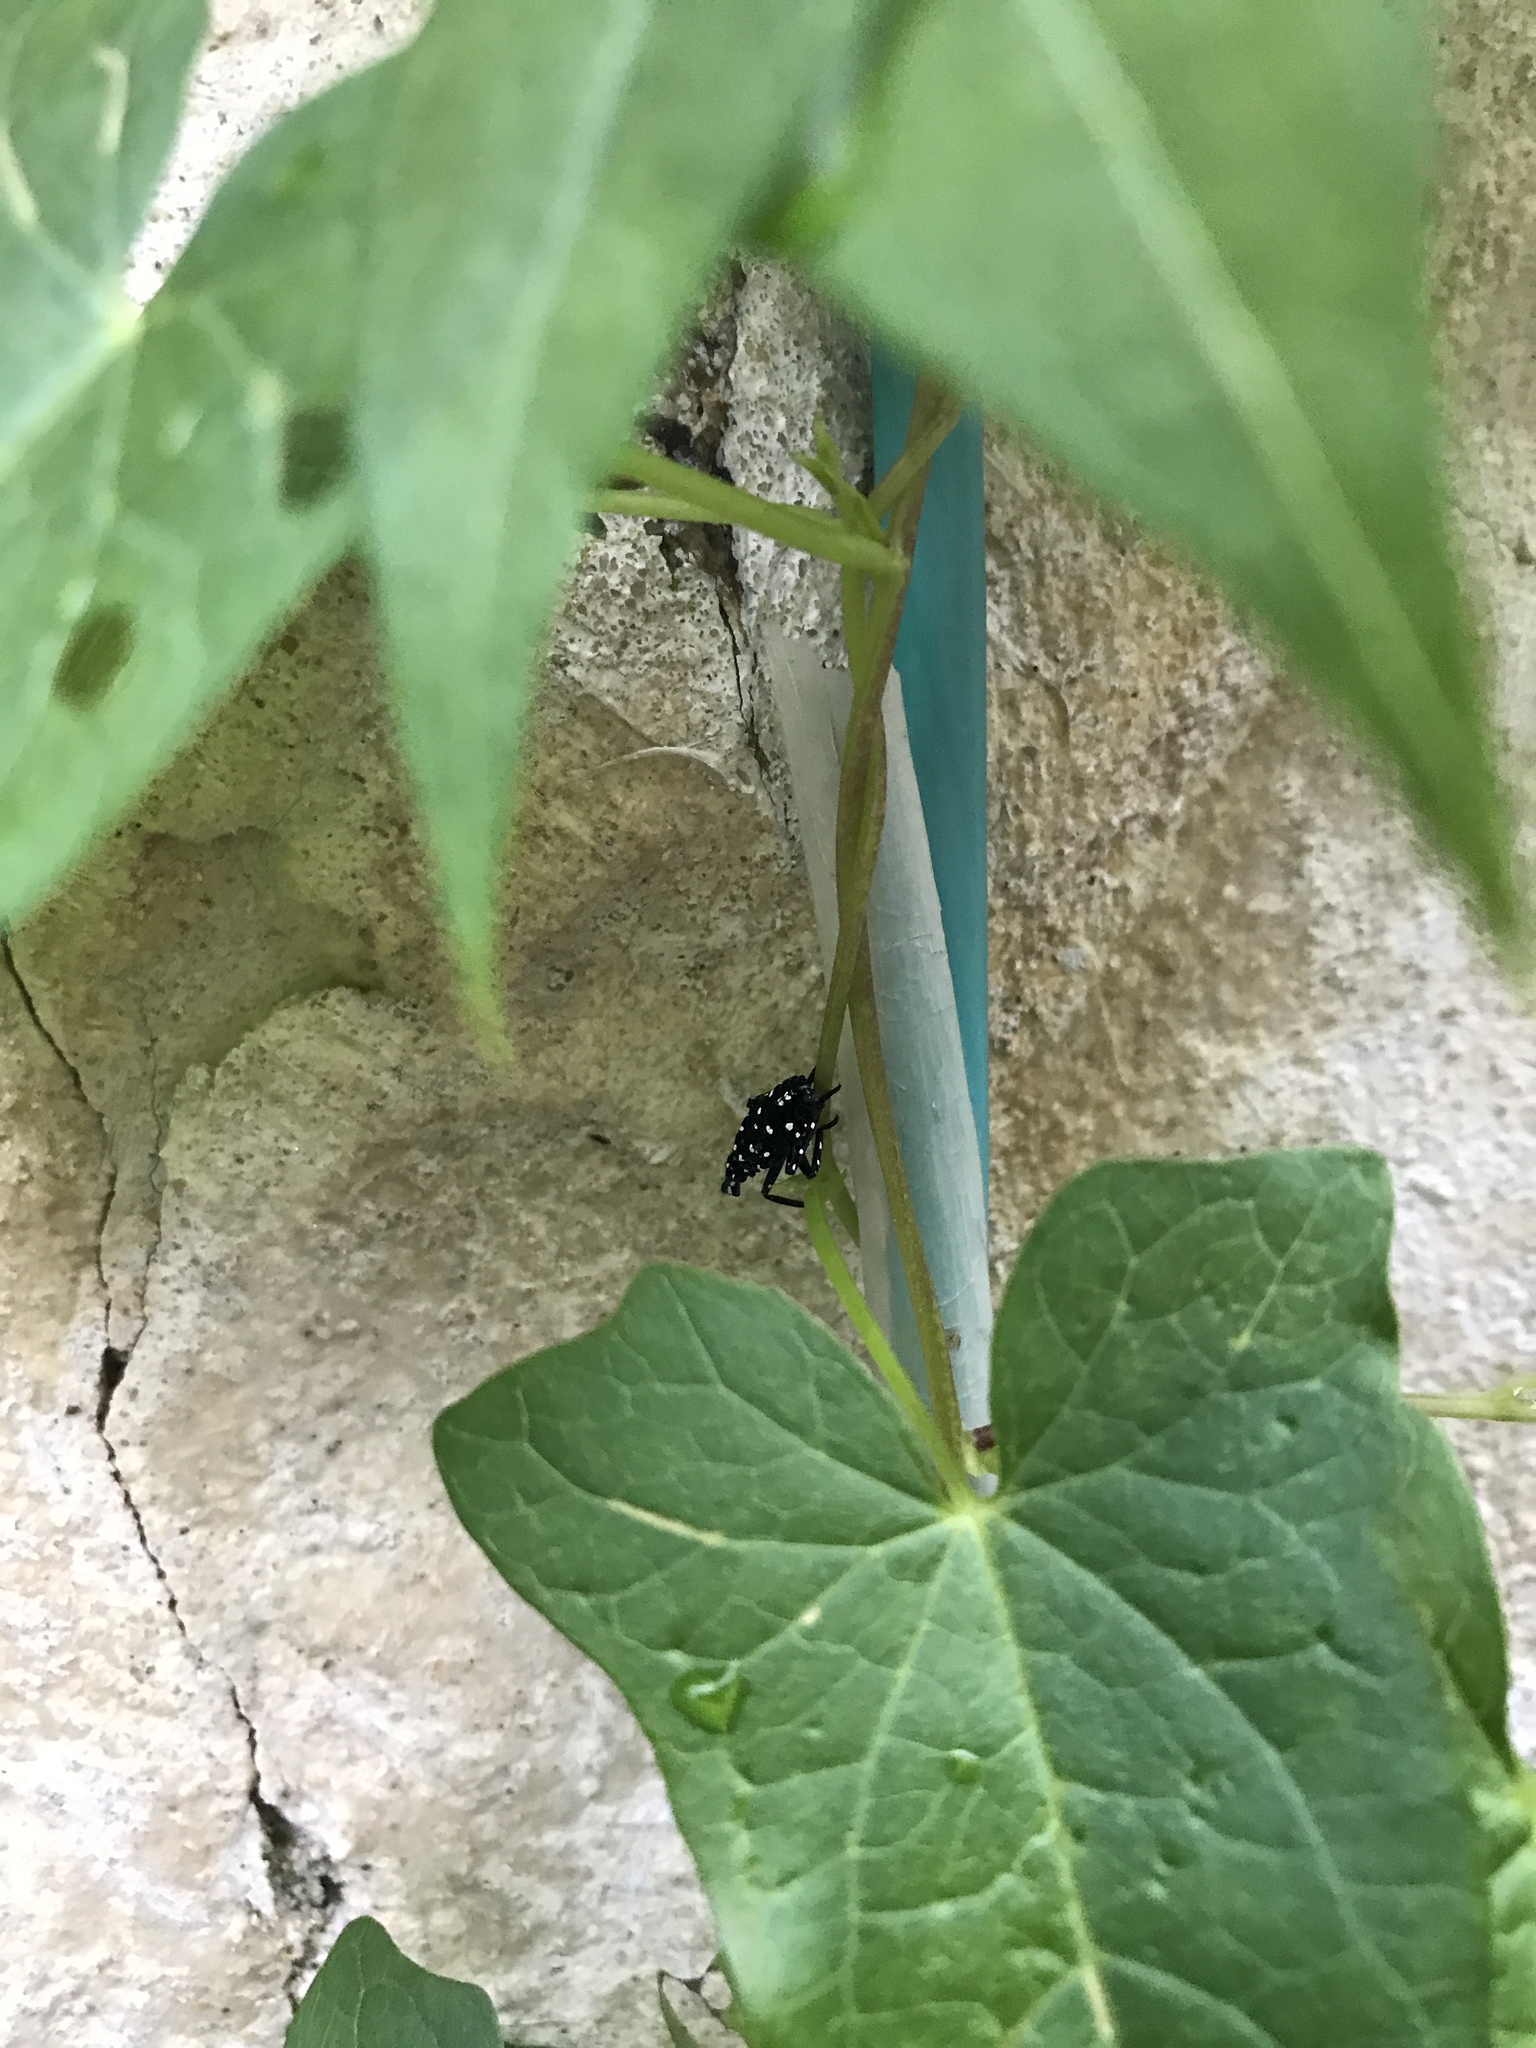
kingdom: Animalia
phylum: Arthropoda
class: Insecta
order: Hemiptera
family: Fulgoridae
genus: Lycorma
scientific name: Lycorma delicatula
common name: Spotted lanternfly
